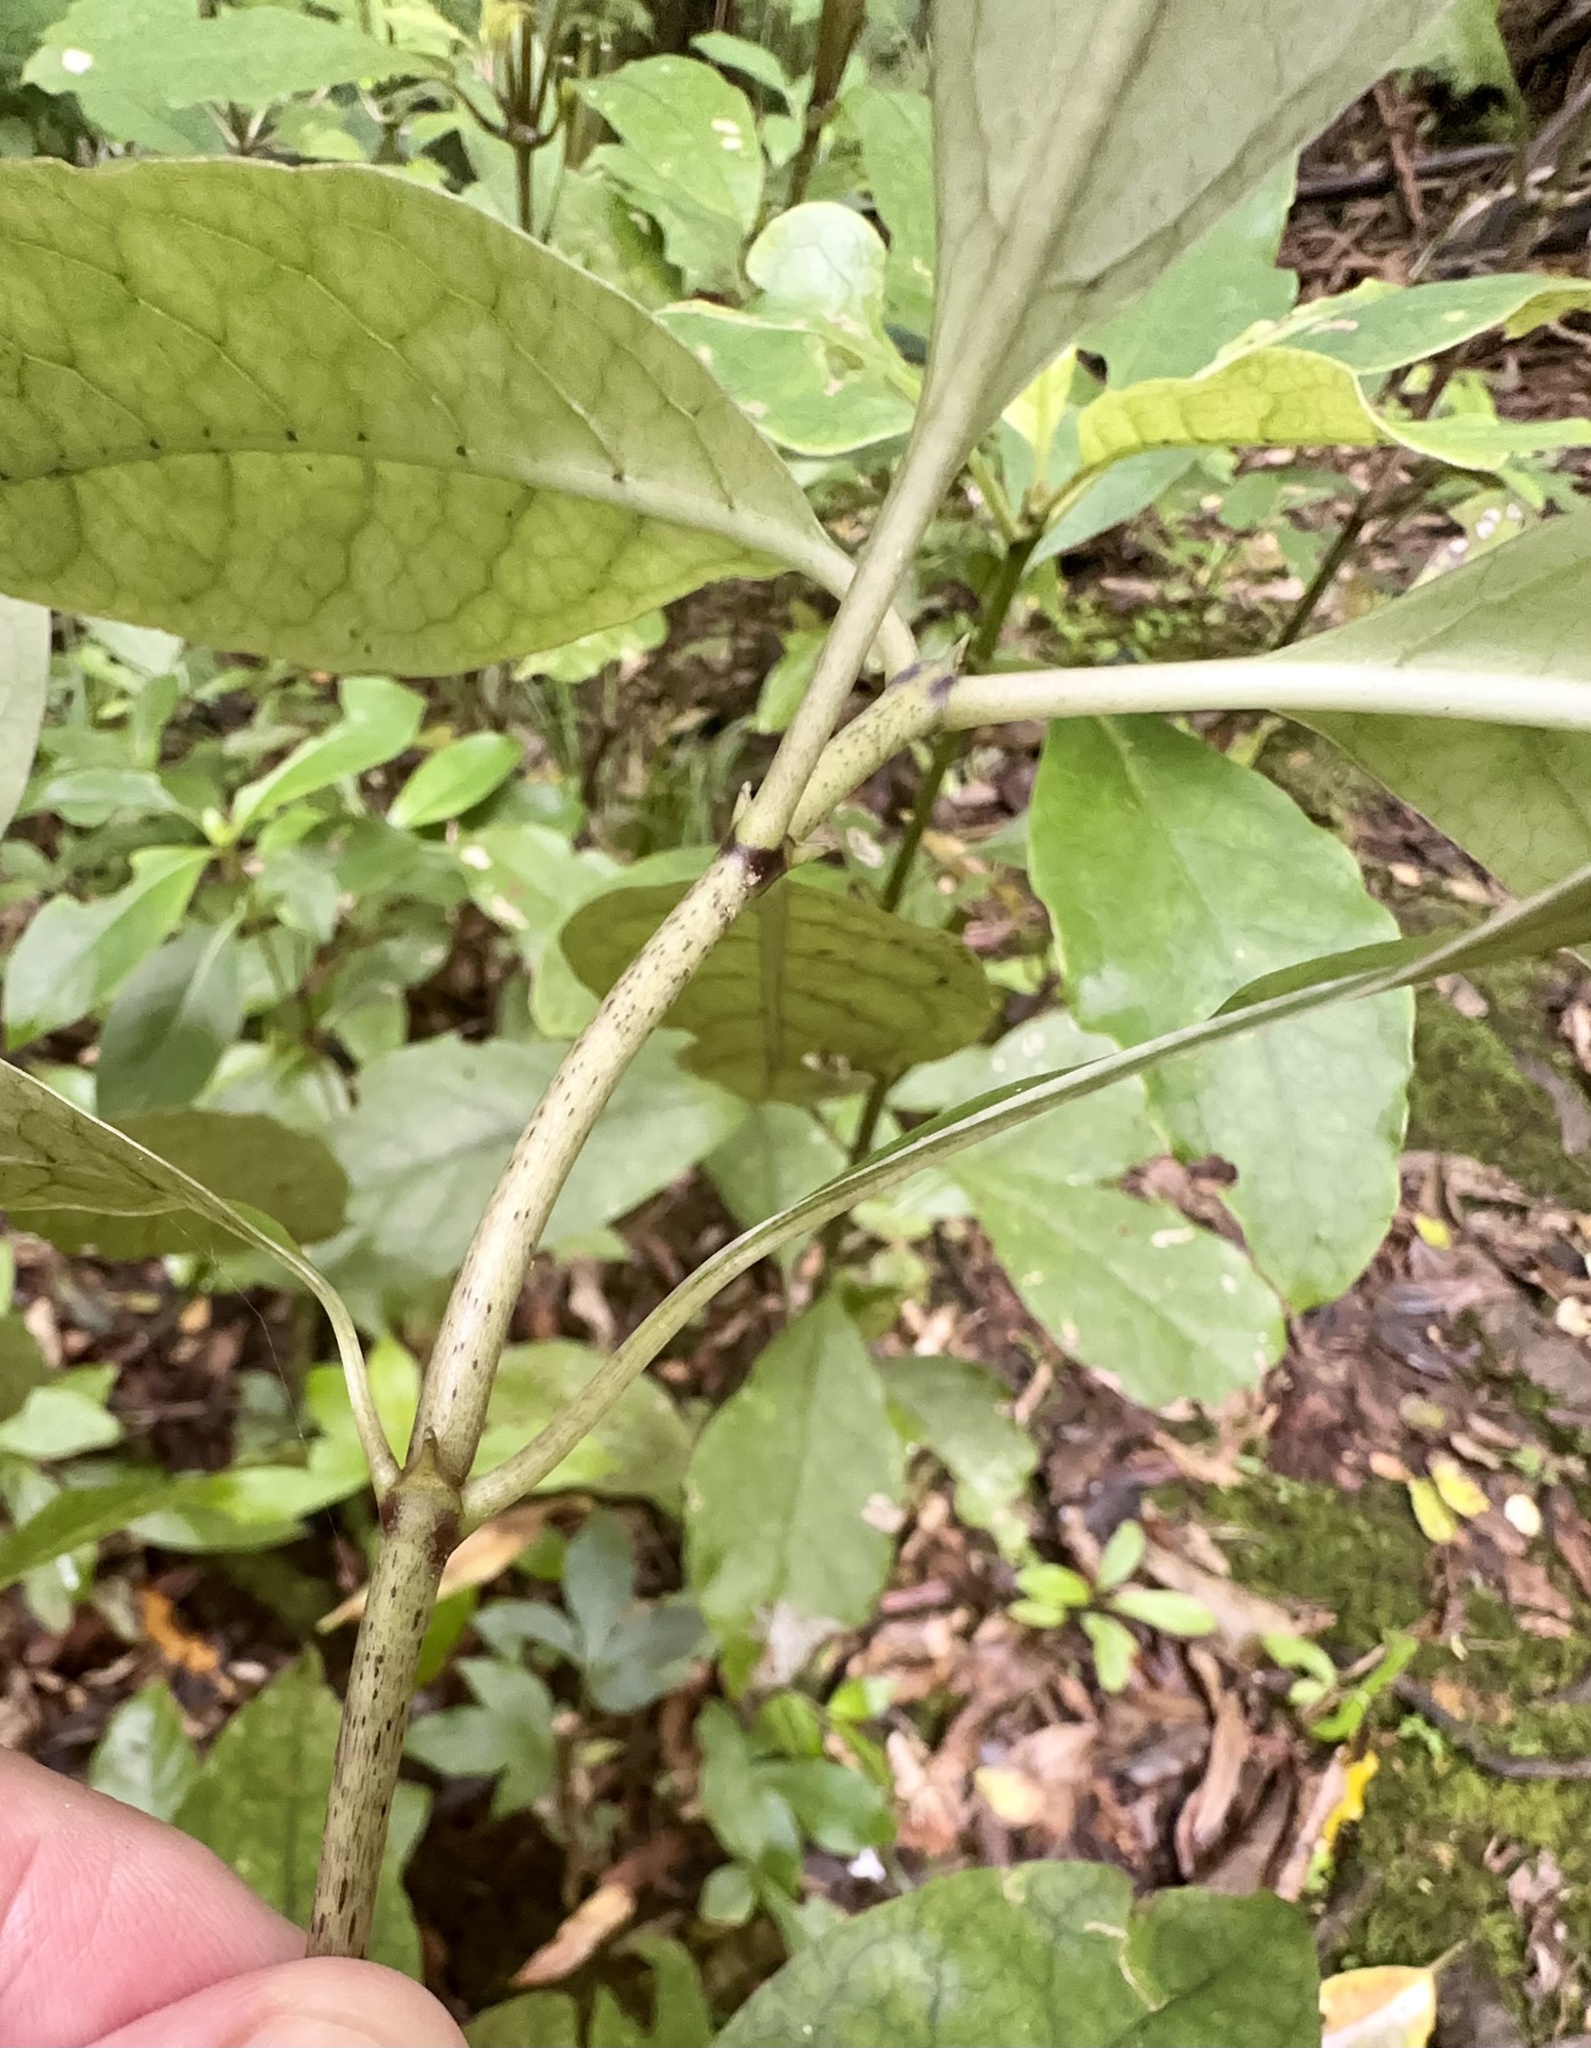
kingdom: Plantae
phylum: Tracheophyta
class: Magnoliopsida
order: Gentianales
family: Rubiaceae
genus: Coprosma
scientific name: Coprosma autumnalis
